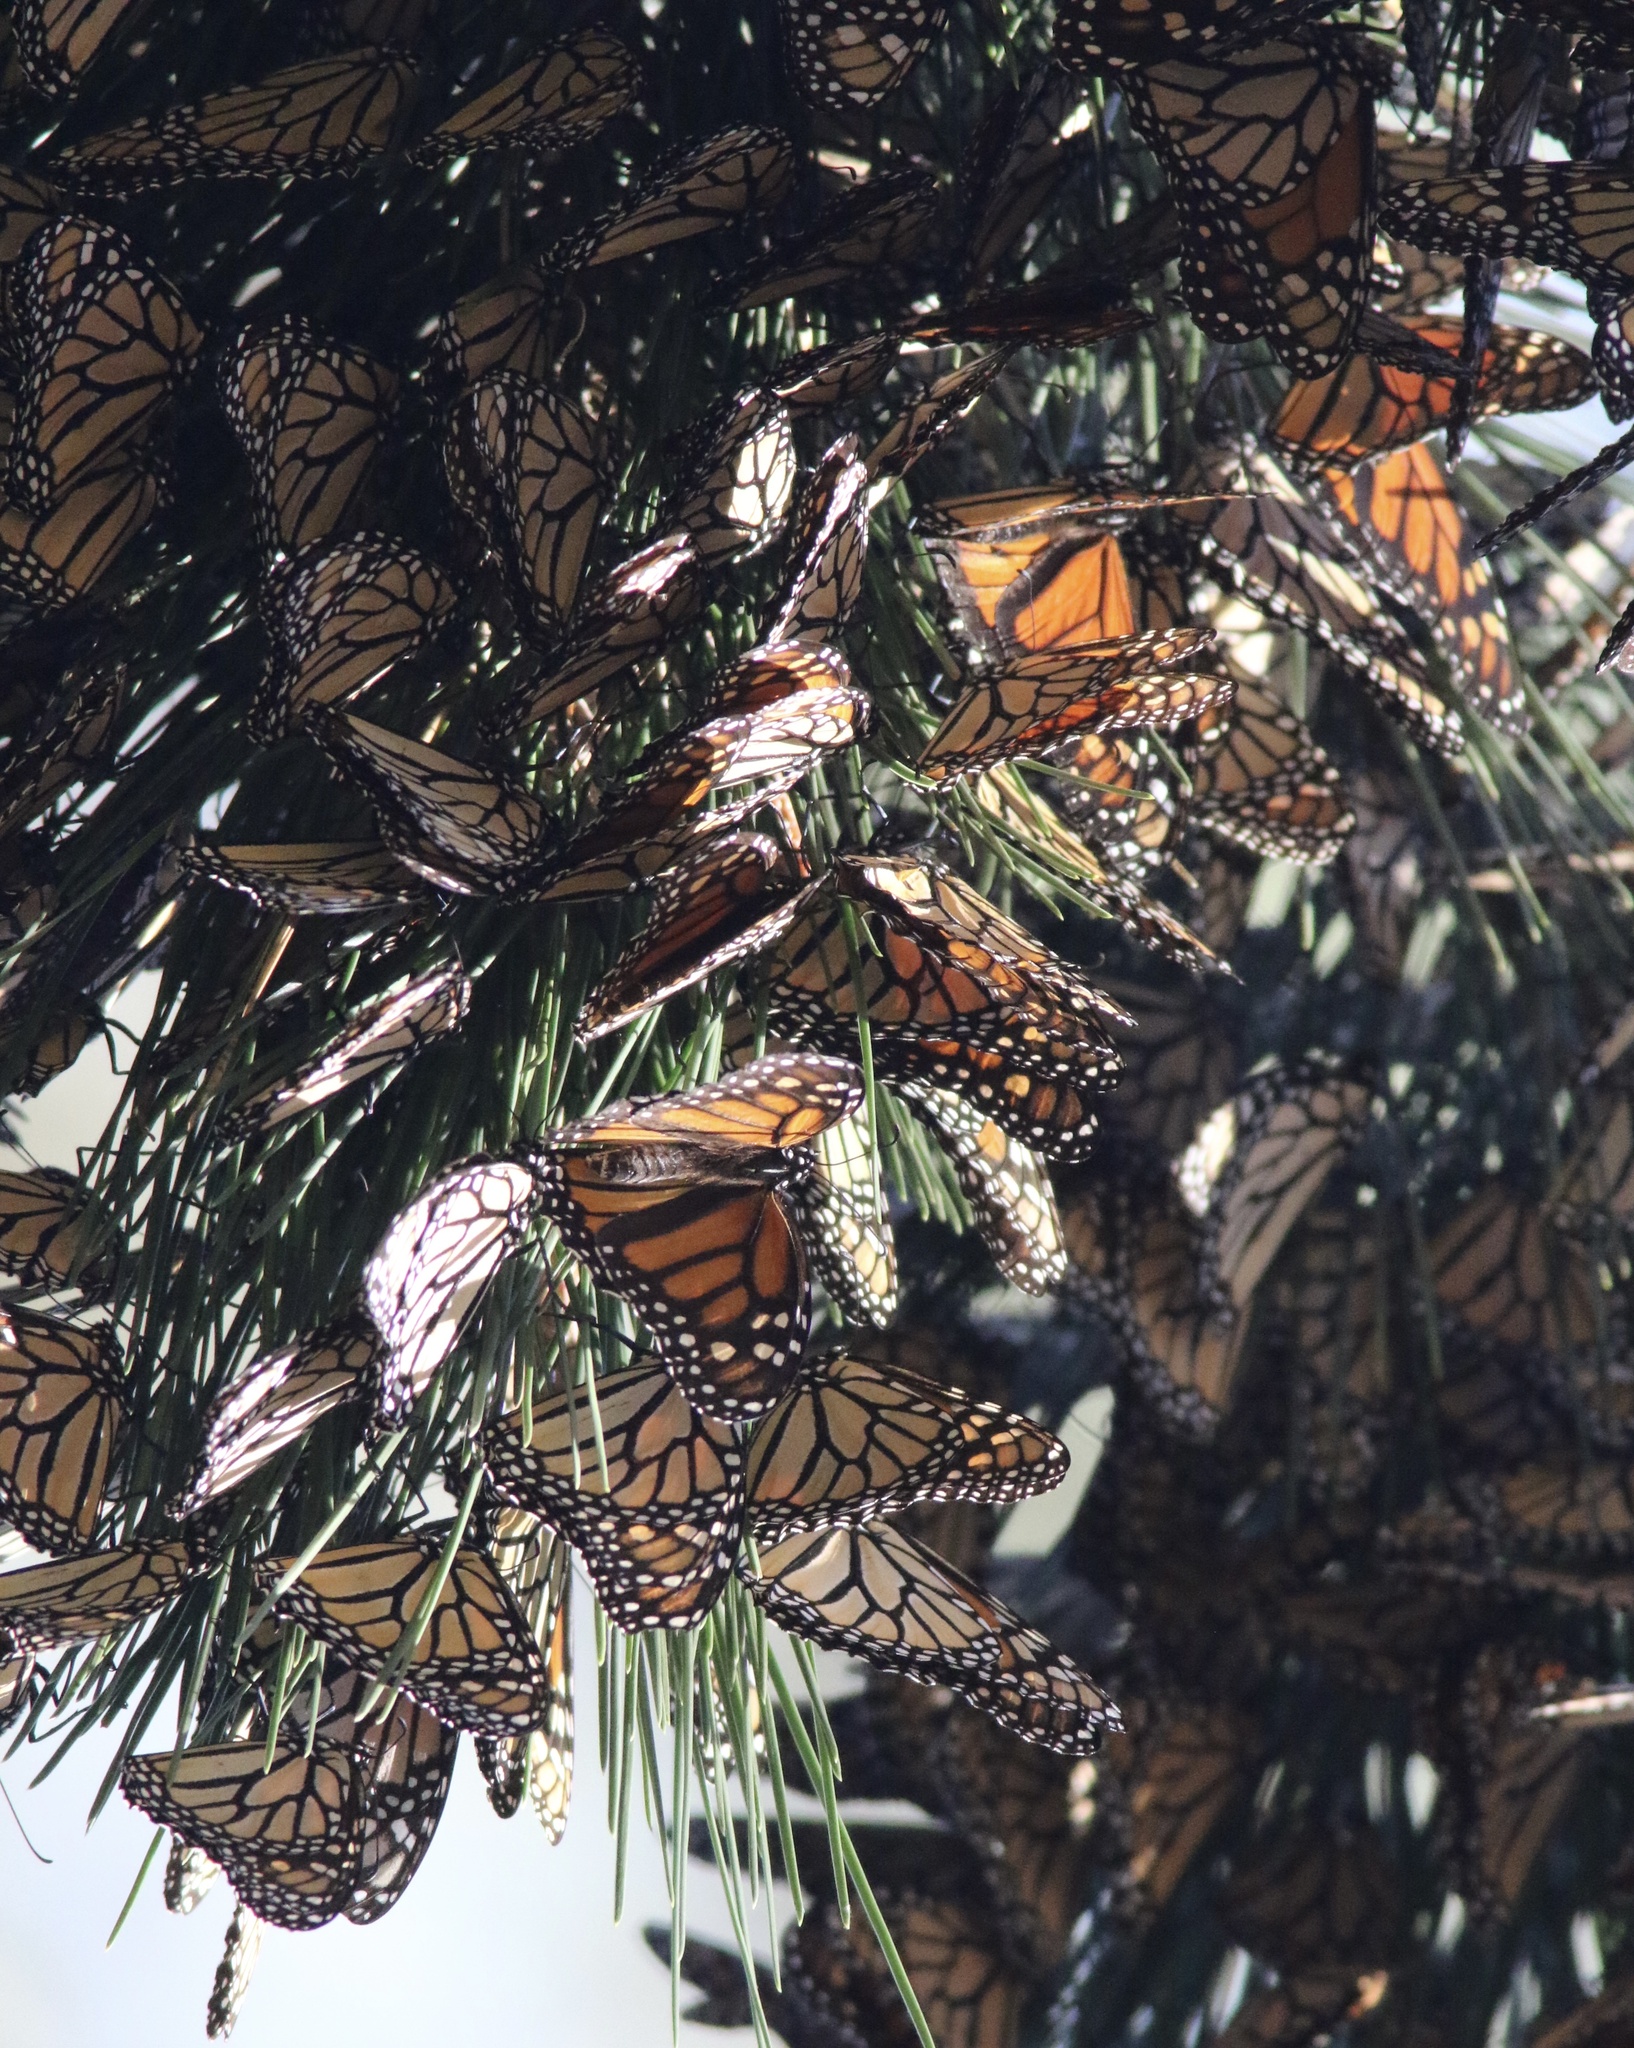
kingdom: Animalia
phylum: Arthropoda
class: Insecta
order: Lepidoptera
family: Nymphalidae
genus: Danaus
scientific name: Danaus plexippus
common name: Monarch
